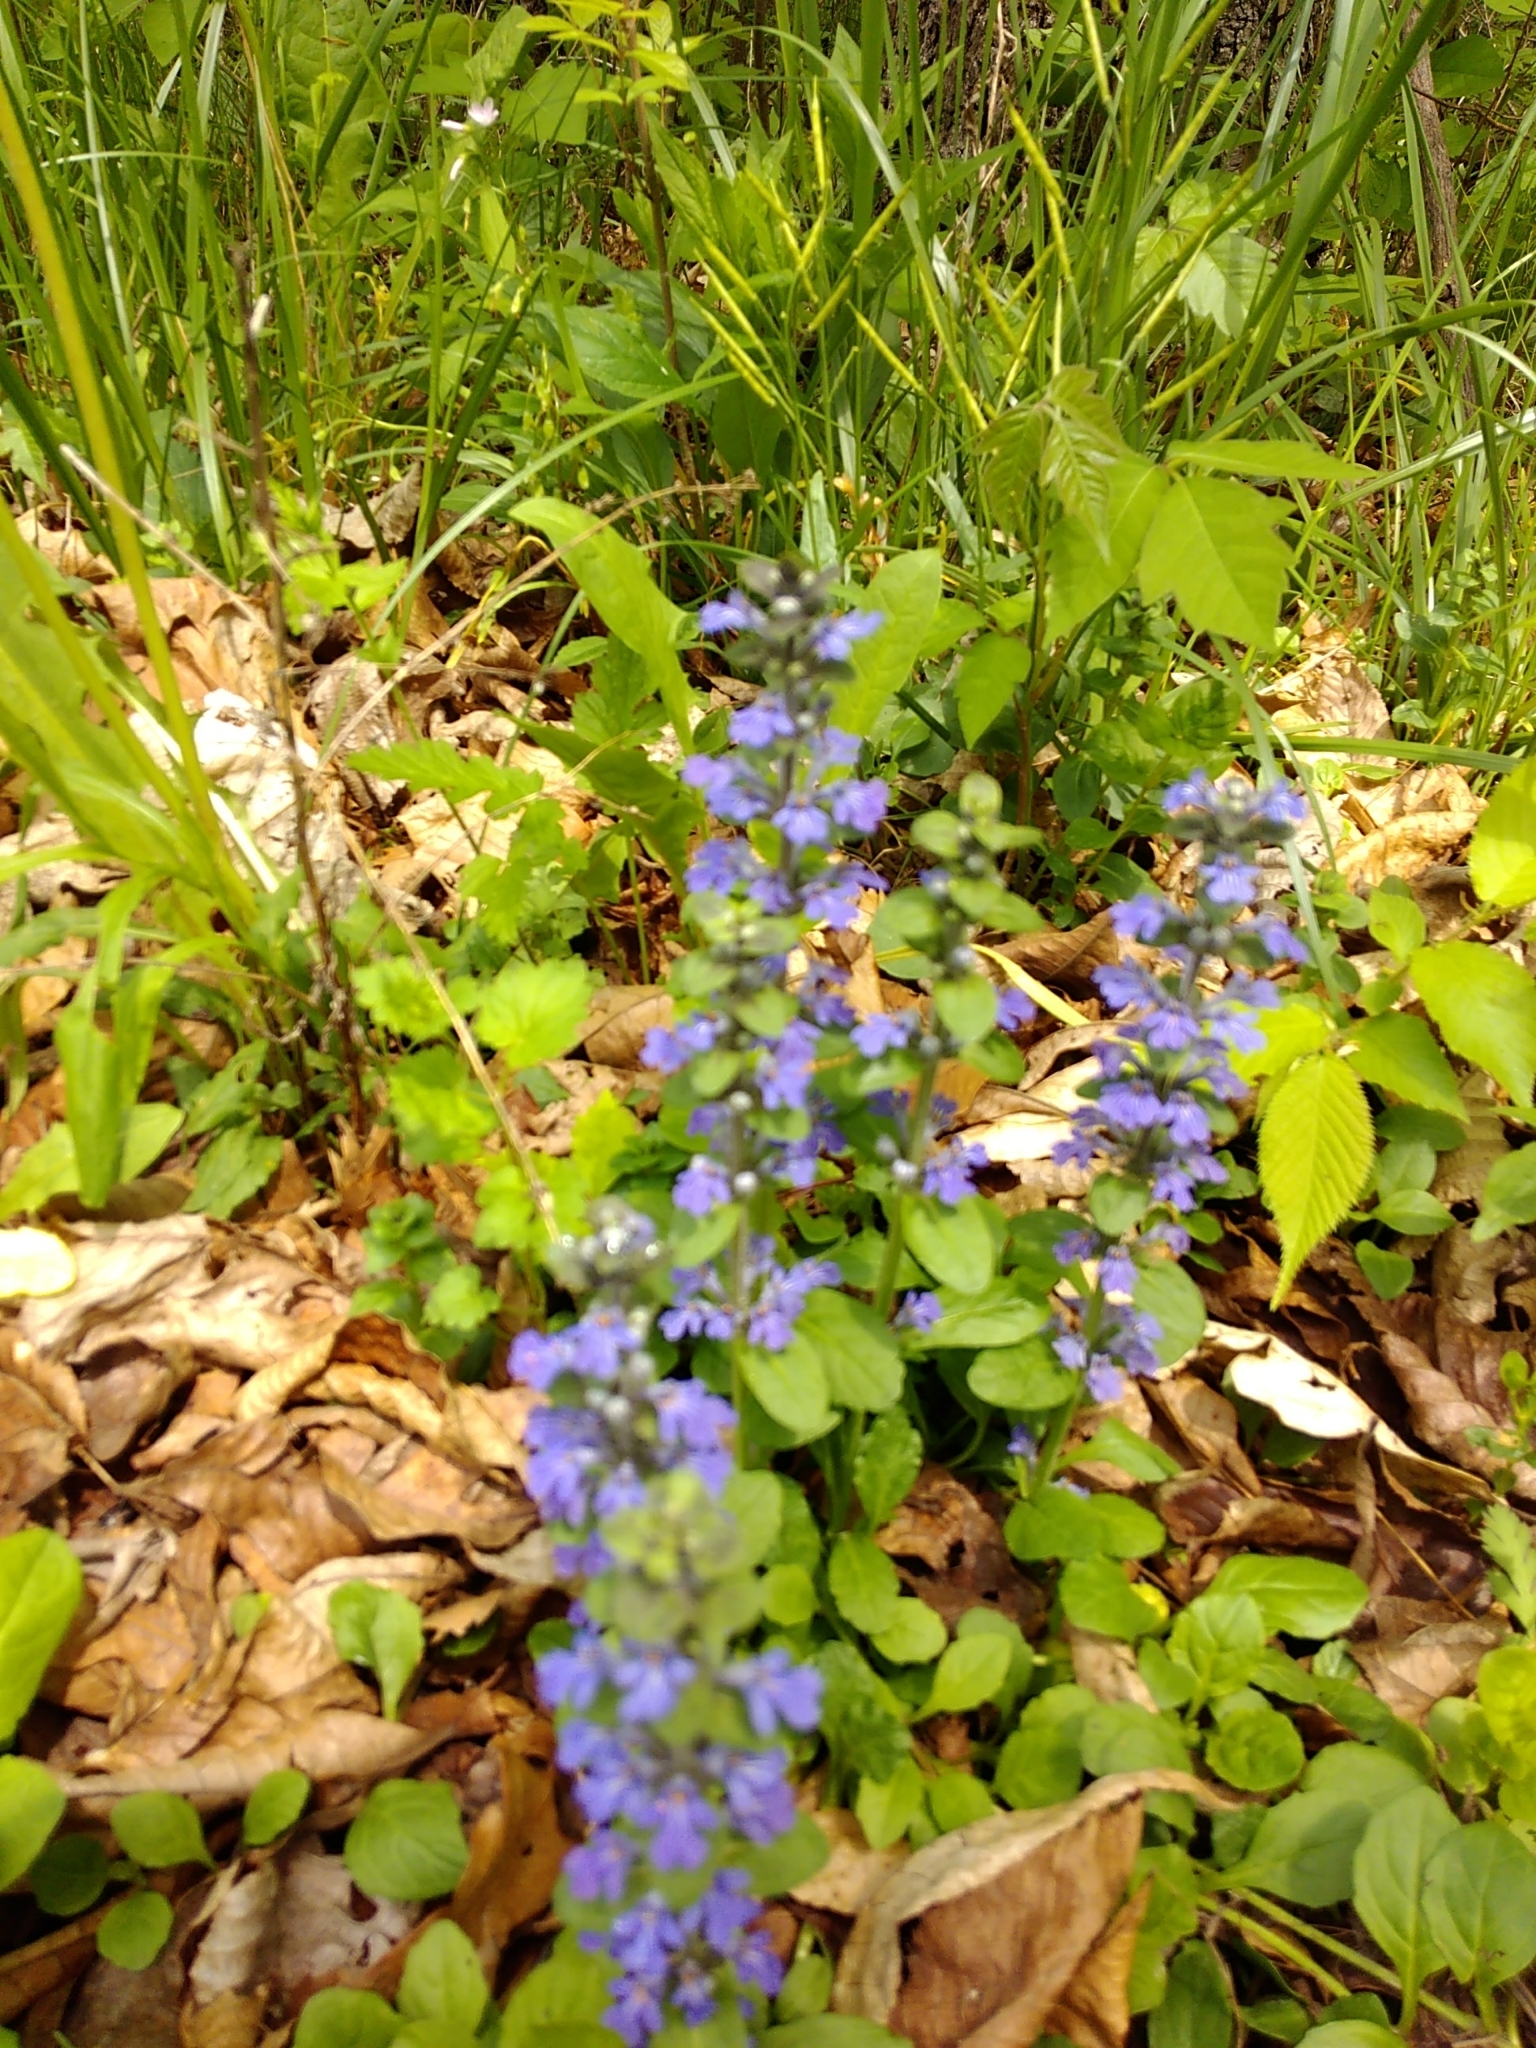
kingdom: Plantae
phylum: Tracheophyta
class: Magnoliopsida
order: Lamiales
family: Lamiaceae
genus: Ajuga
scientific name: Ajuga reptans
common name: Bugle
